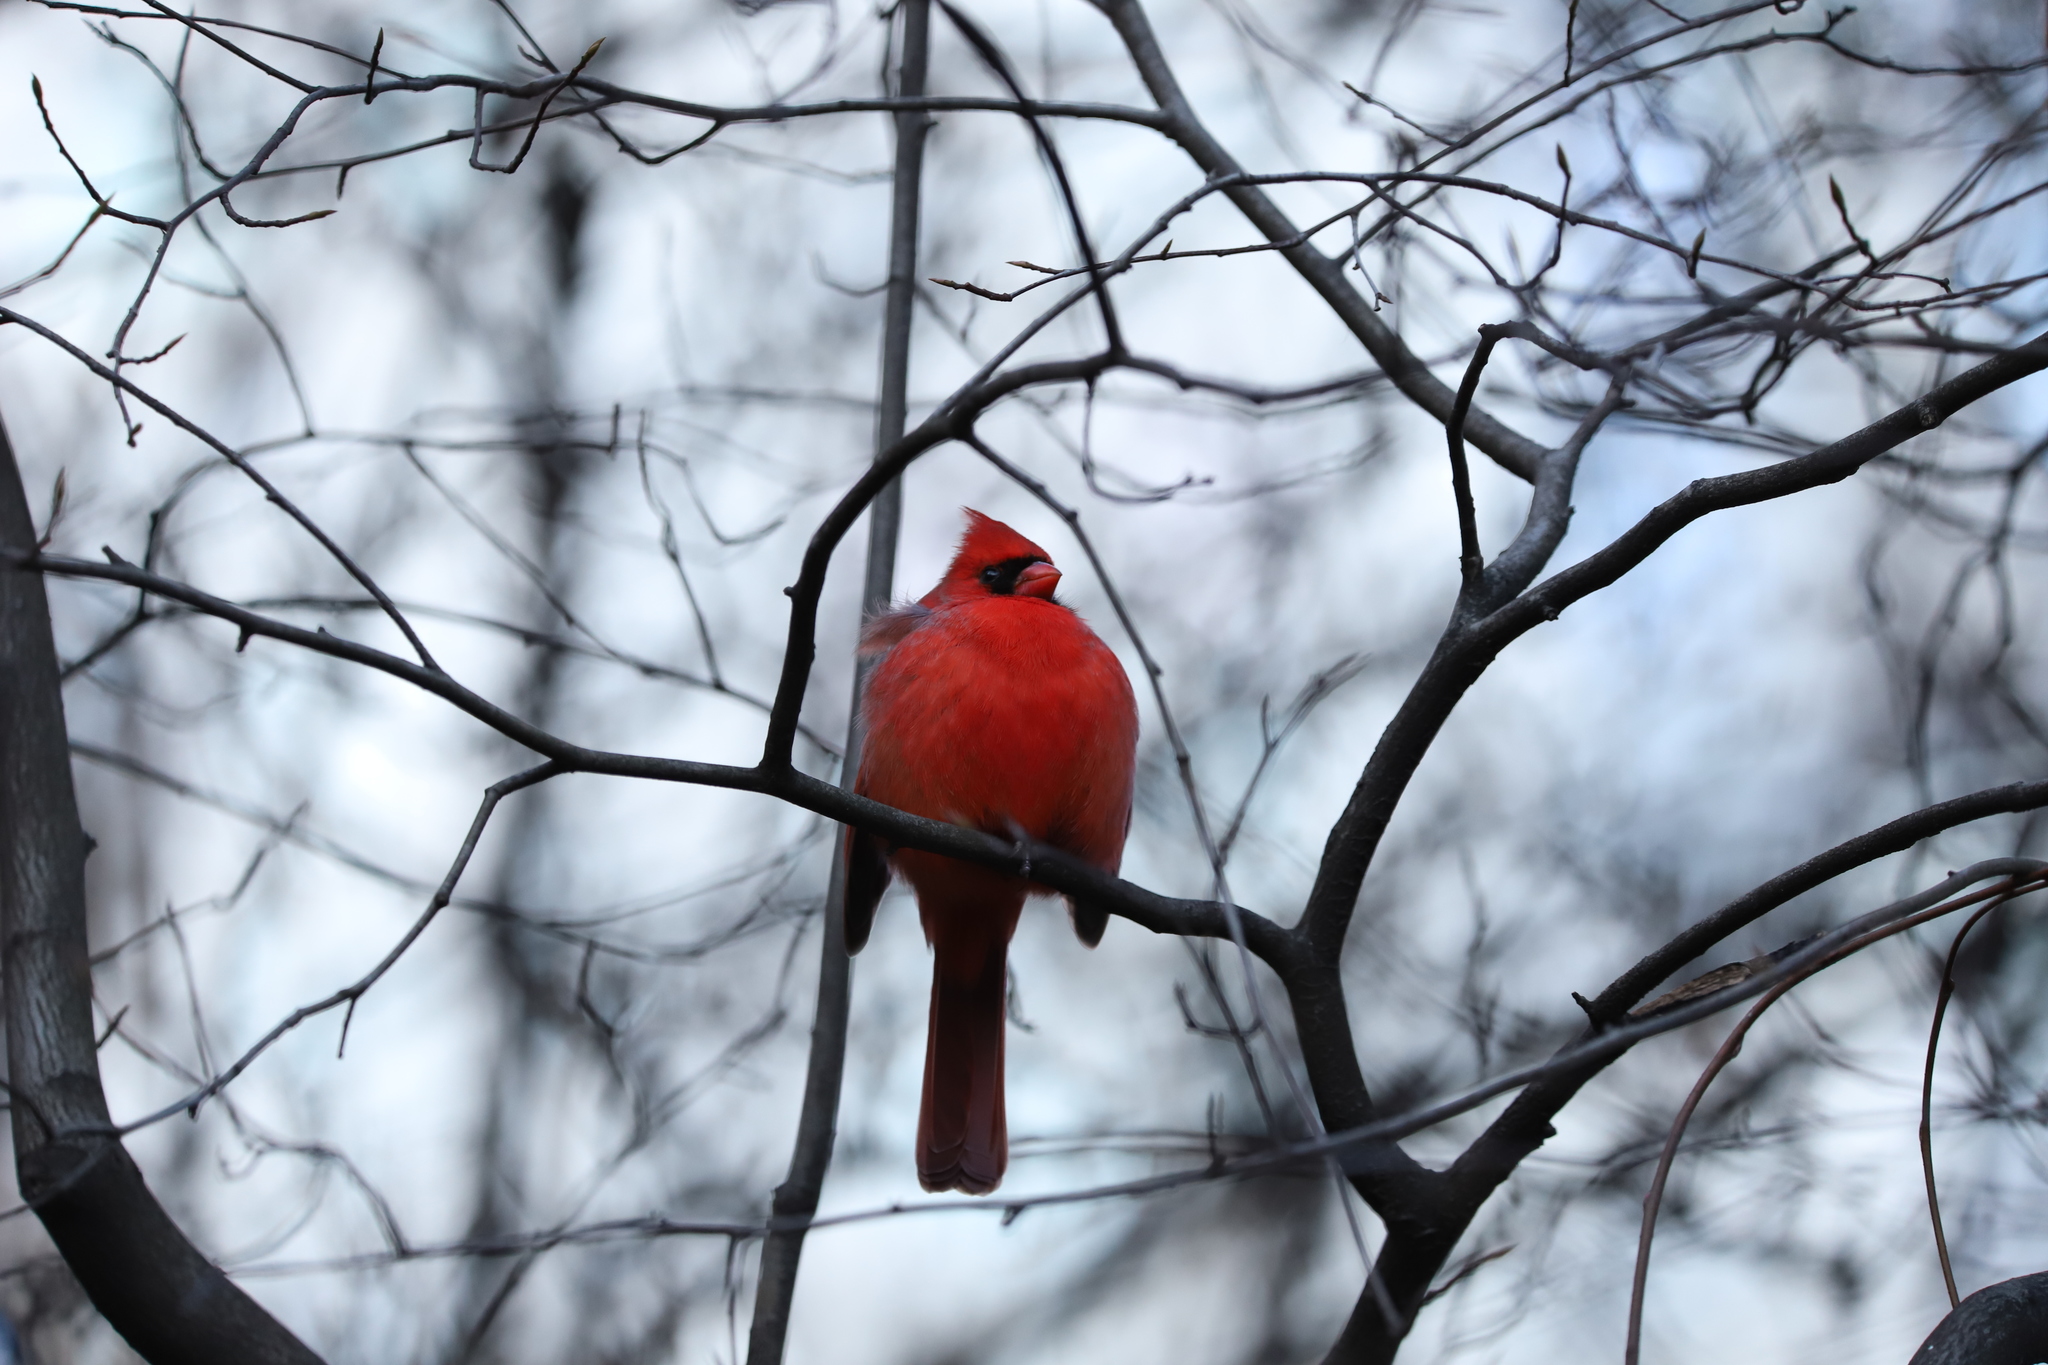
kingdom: Animalia
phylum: Chordata
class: Aves
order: Passeriformes
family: Cardinalidae
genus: Cardinalis
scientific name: Cardinalis cardinalis
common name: Northern cardinal
